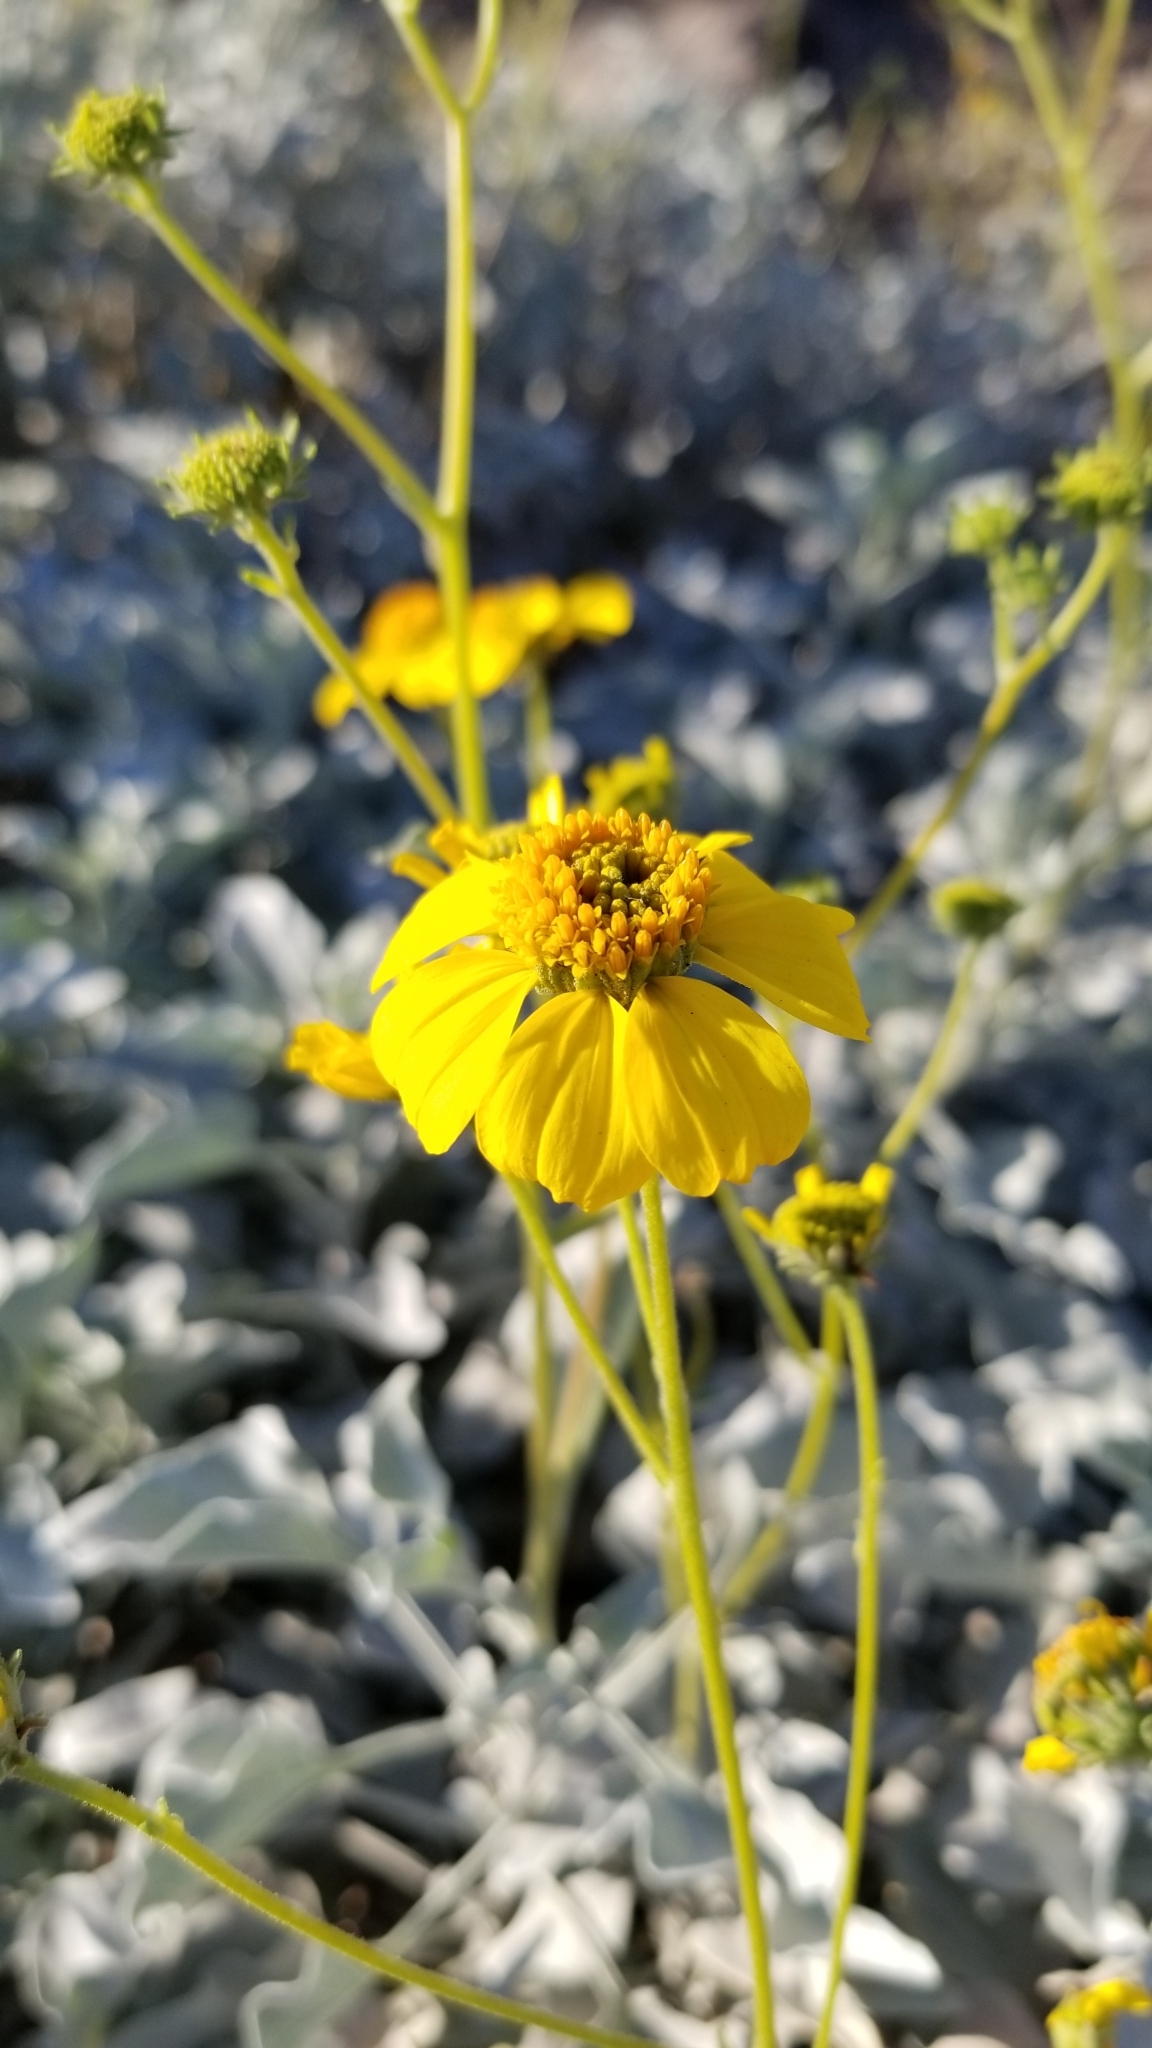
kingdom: Plantae
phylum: Tracheophyta
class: Magnoliopsida
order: Asterales
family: Asteraceae
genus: Encelia
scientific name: Encelia farinosa
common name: Brittlebush
